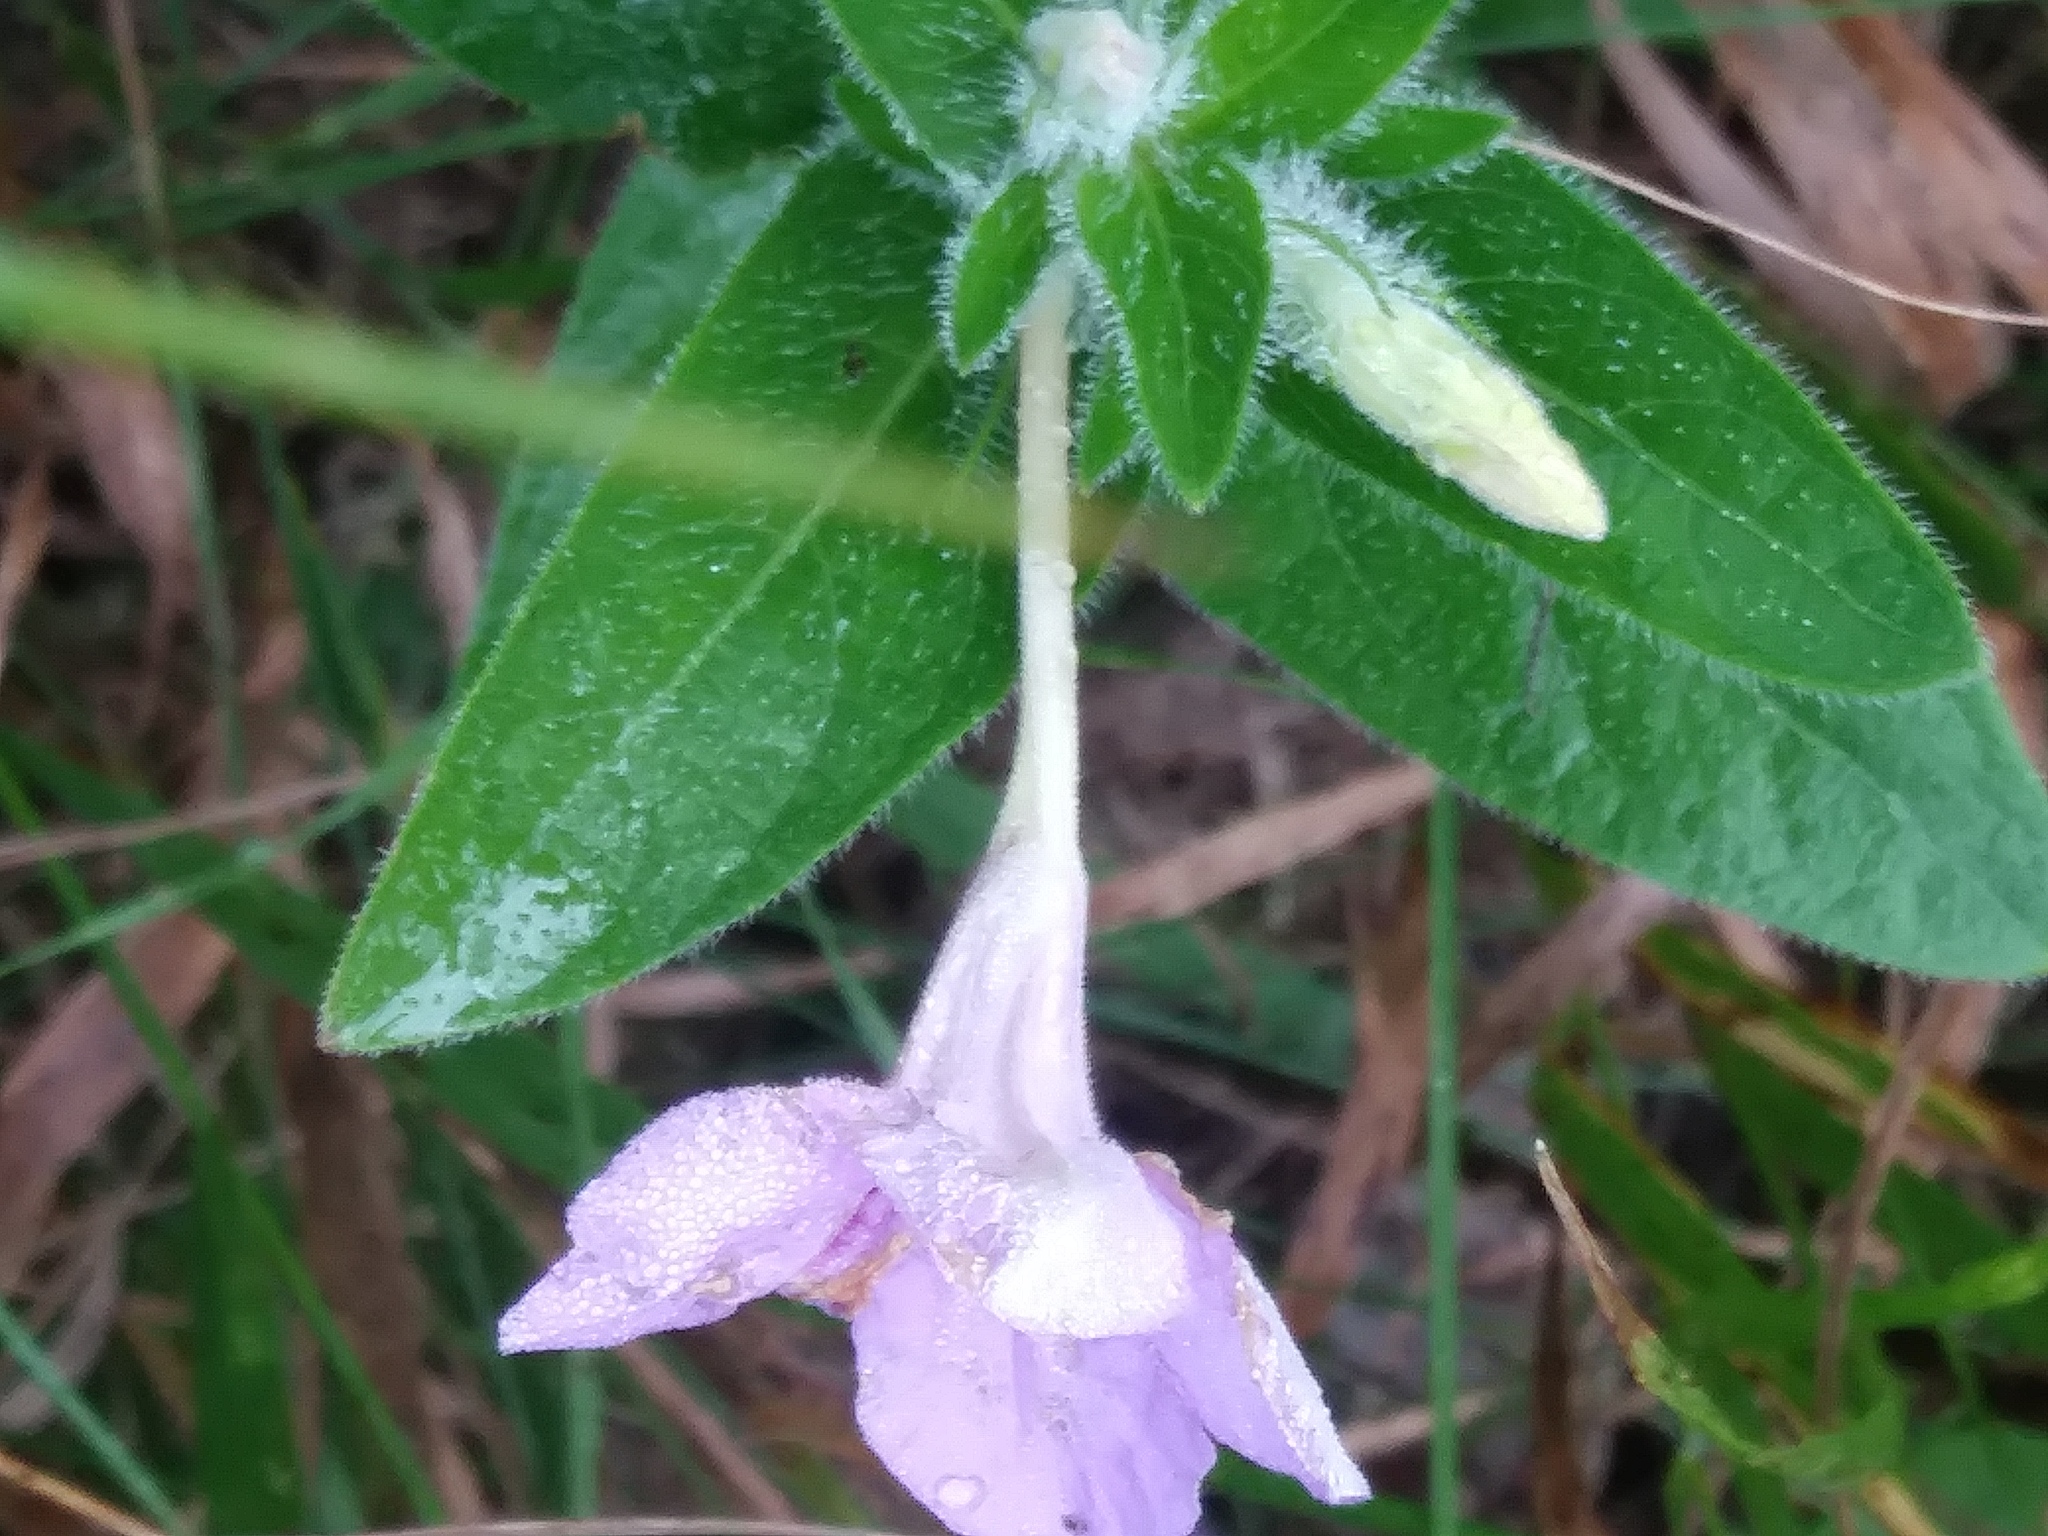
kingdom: Plantae
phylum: Tracheophyta
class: Magnoliopsida
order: Lamiales
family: Acanthaceae
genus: Ruellia
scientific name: Ruellia humilis
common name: Fringe-leaf ruellia
